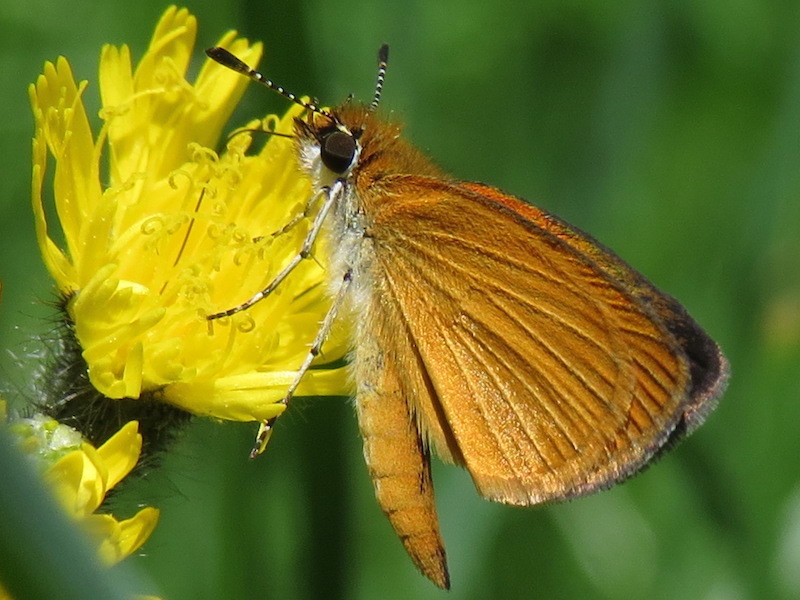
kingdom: Animalia
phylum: Arthropoda
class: Insecta
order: Lepidoptera
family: Hesperiidae
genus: Ancyloxypha
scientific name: Ancyloxypha numitor
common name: Least skipper
